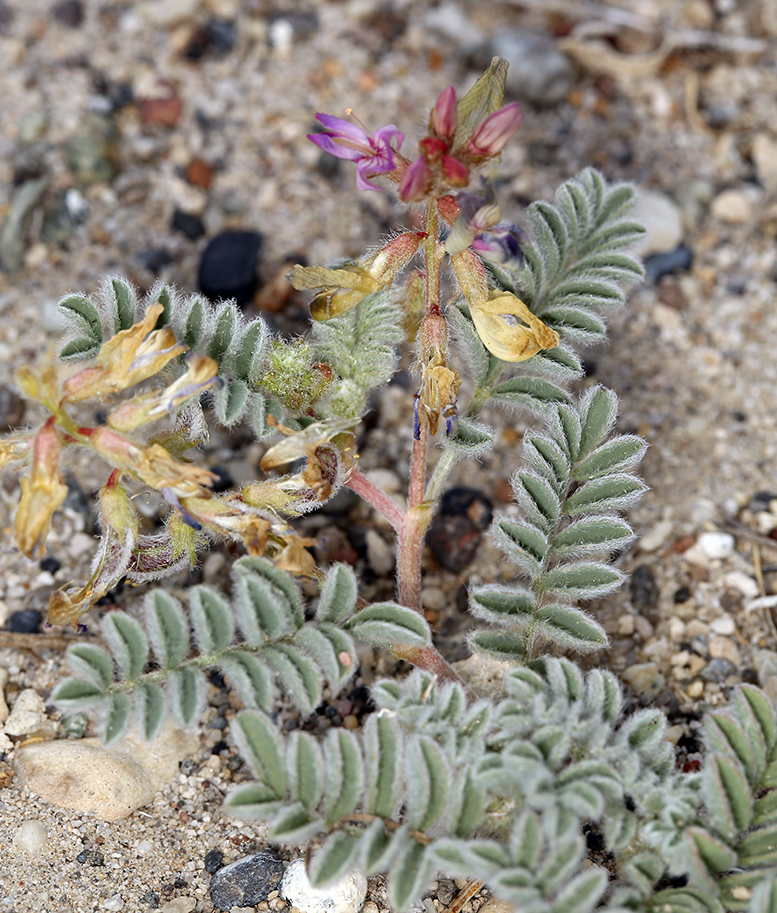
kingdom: Plantae
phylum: Tracheophyta
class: Magnoliopsida
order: Fabales
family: Fabaceae
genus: Astragalus
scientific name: Astragalus lentiginosus
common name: Freckled milkvetch
